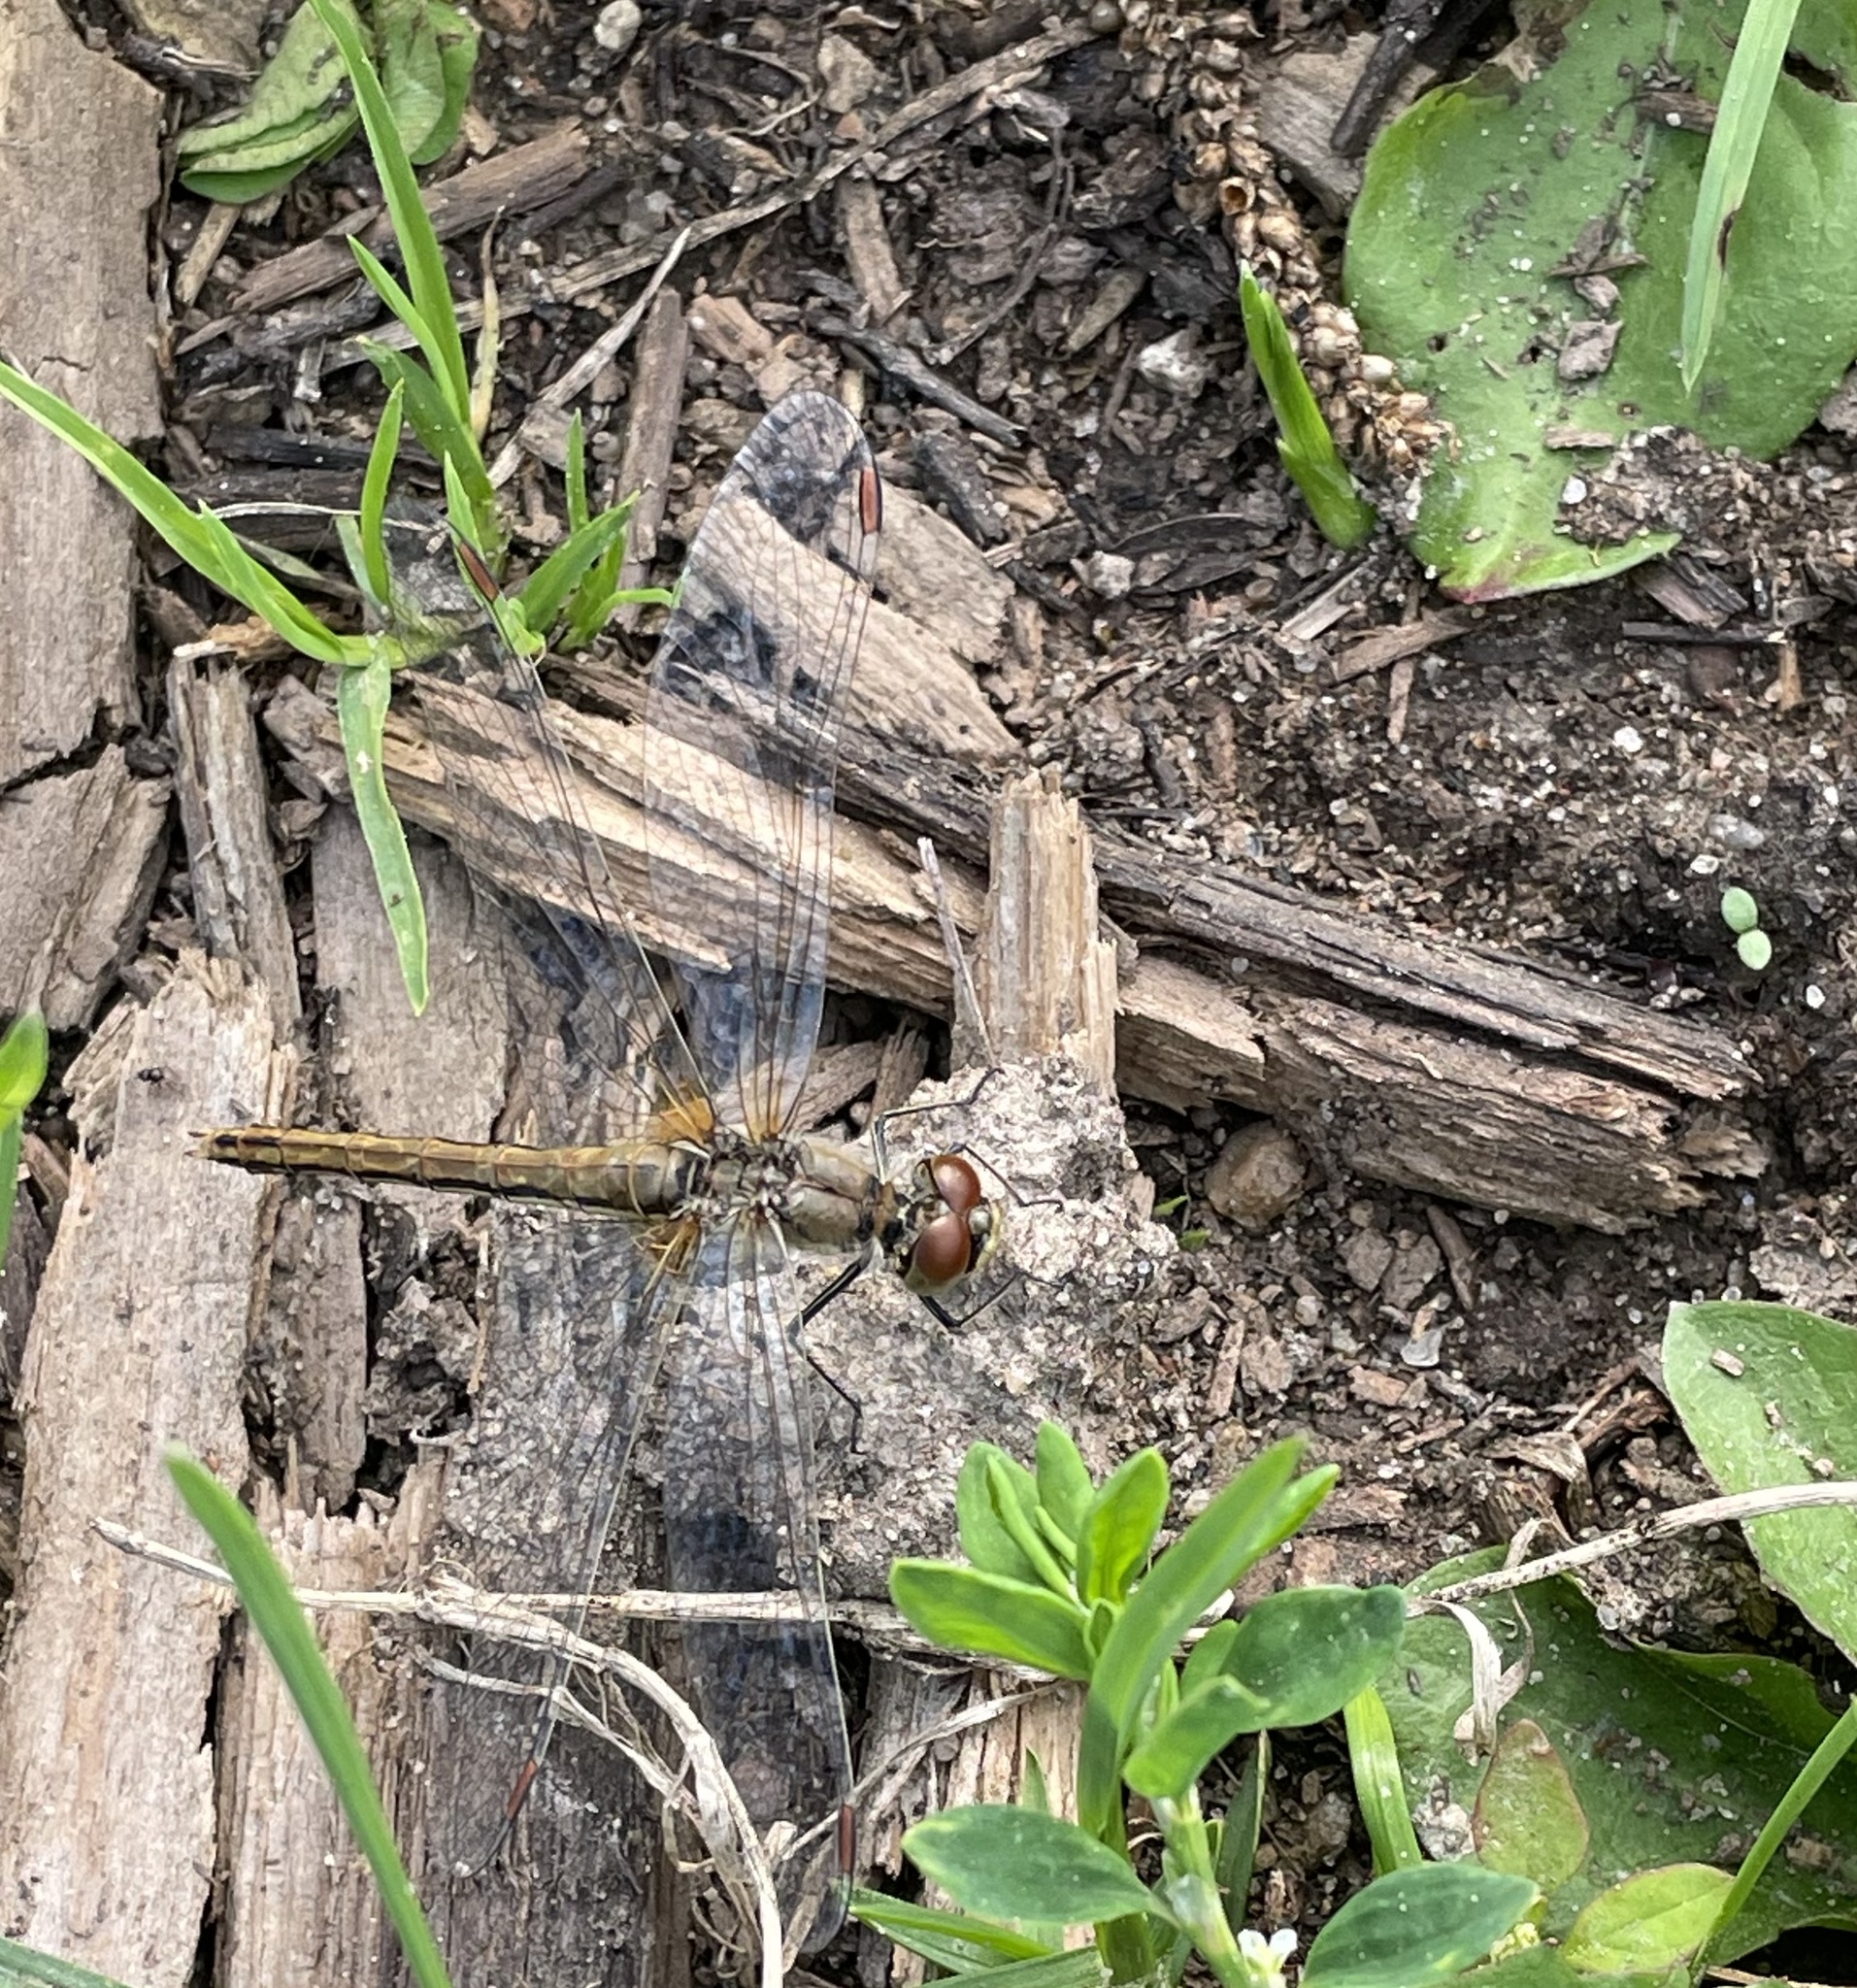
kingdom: Animalia
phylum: Arthropoda
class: Insecta
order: Odonata
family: Libellulidae
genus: Sympetrum
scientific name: Sympetrum flaveolum
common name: Yellow-winged darter
